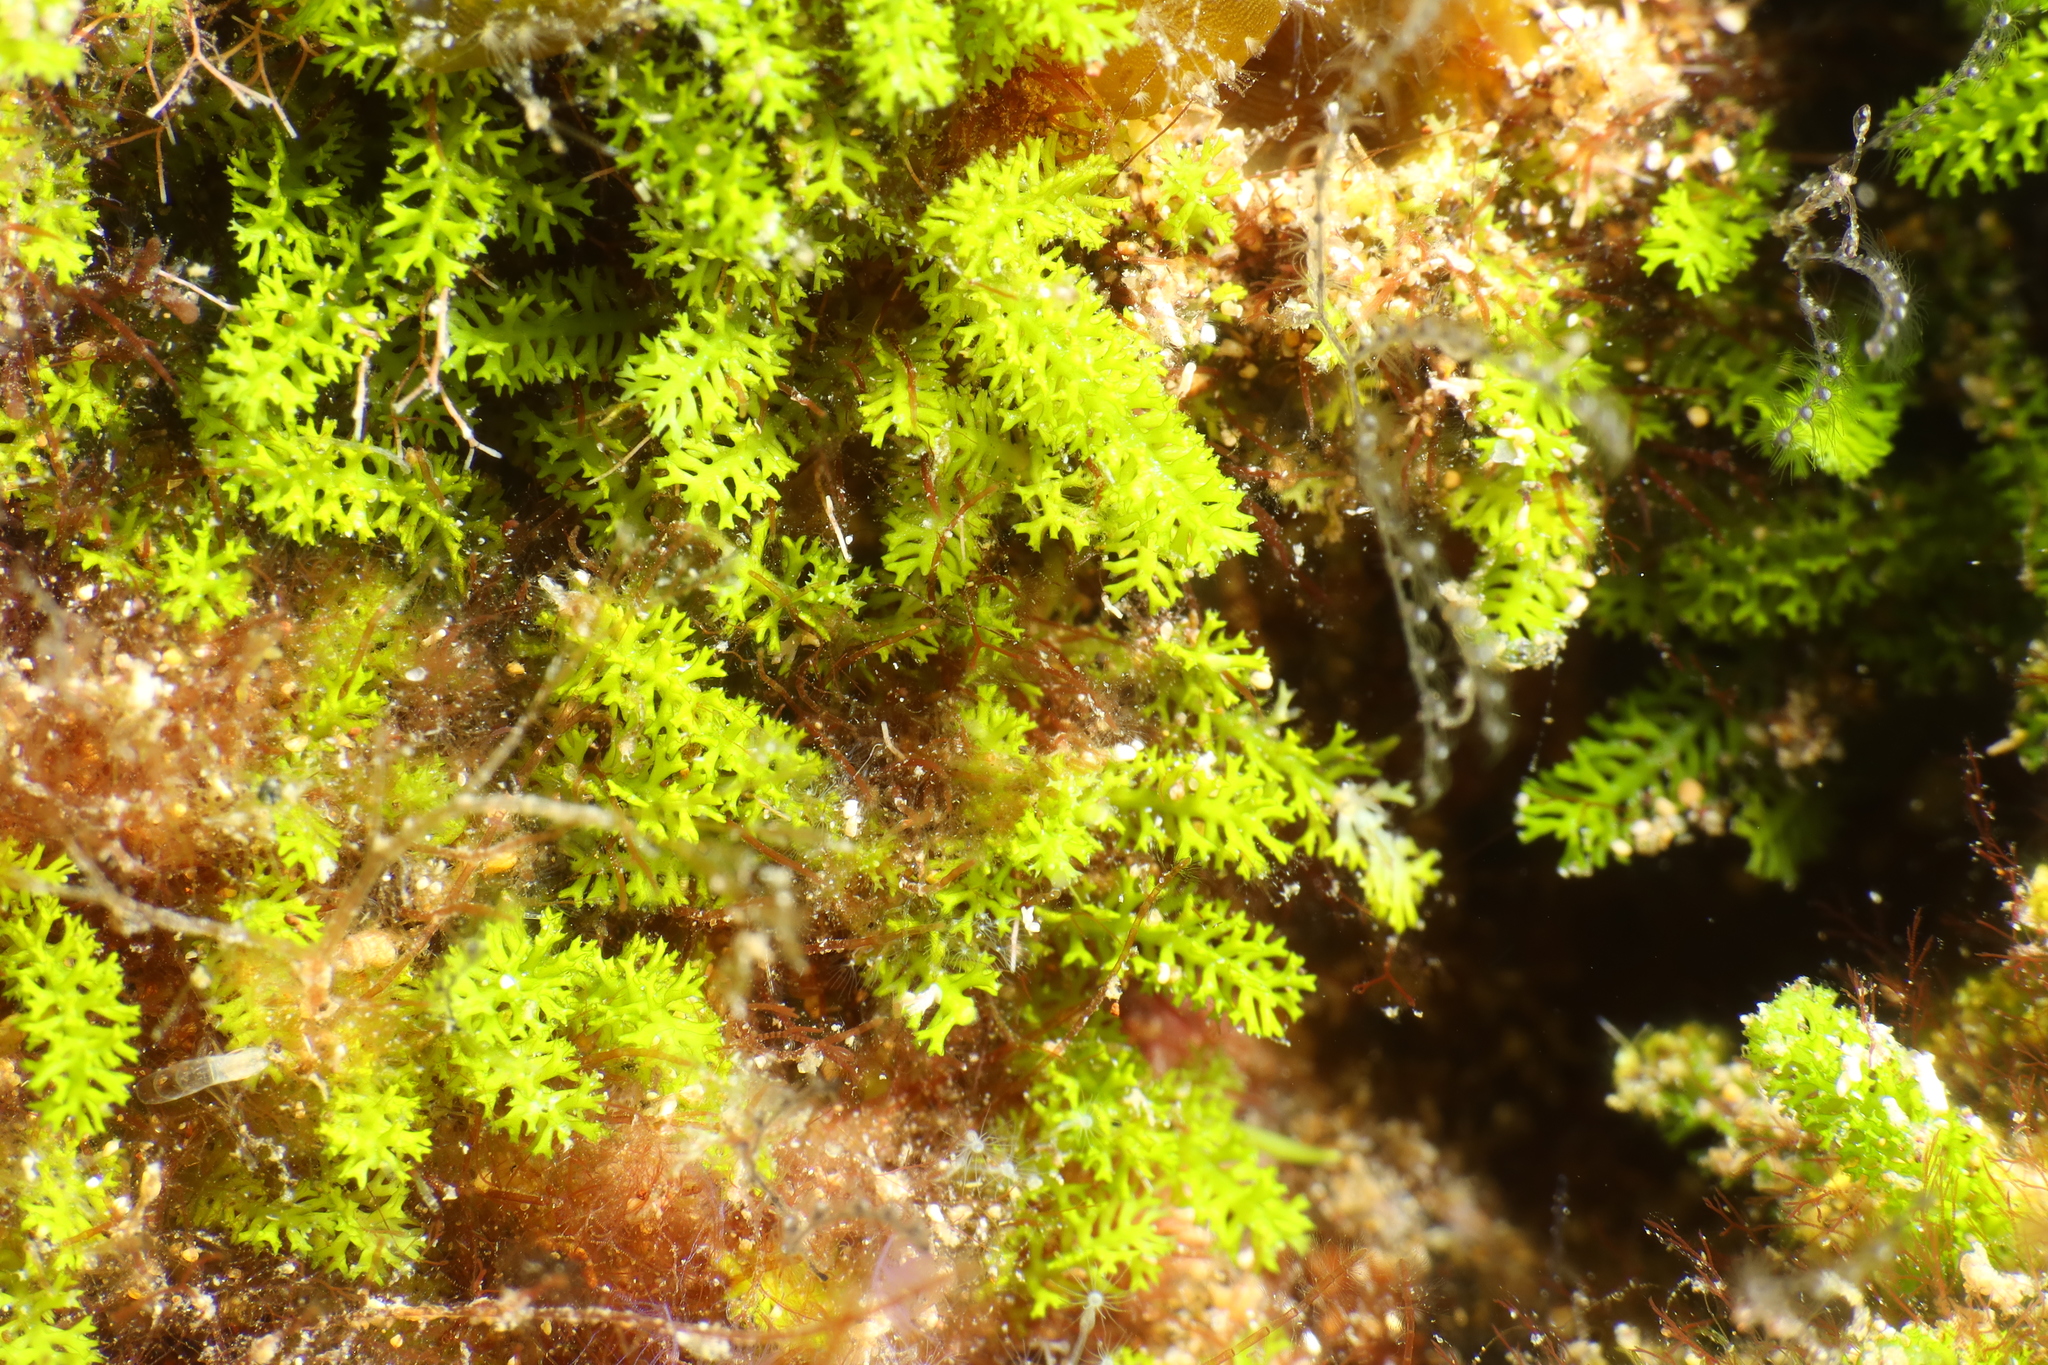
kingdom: Plantae
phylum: Chlorophyta
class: Ulvophyceae
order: Bryopsidales
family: Caulerpaceae
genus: Caulerpa
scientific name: Caulerpa webbiana
